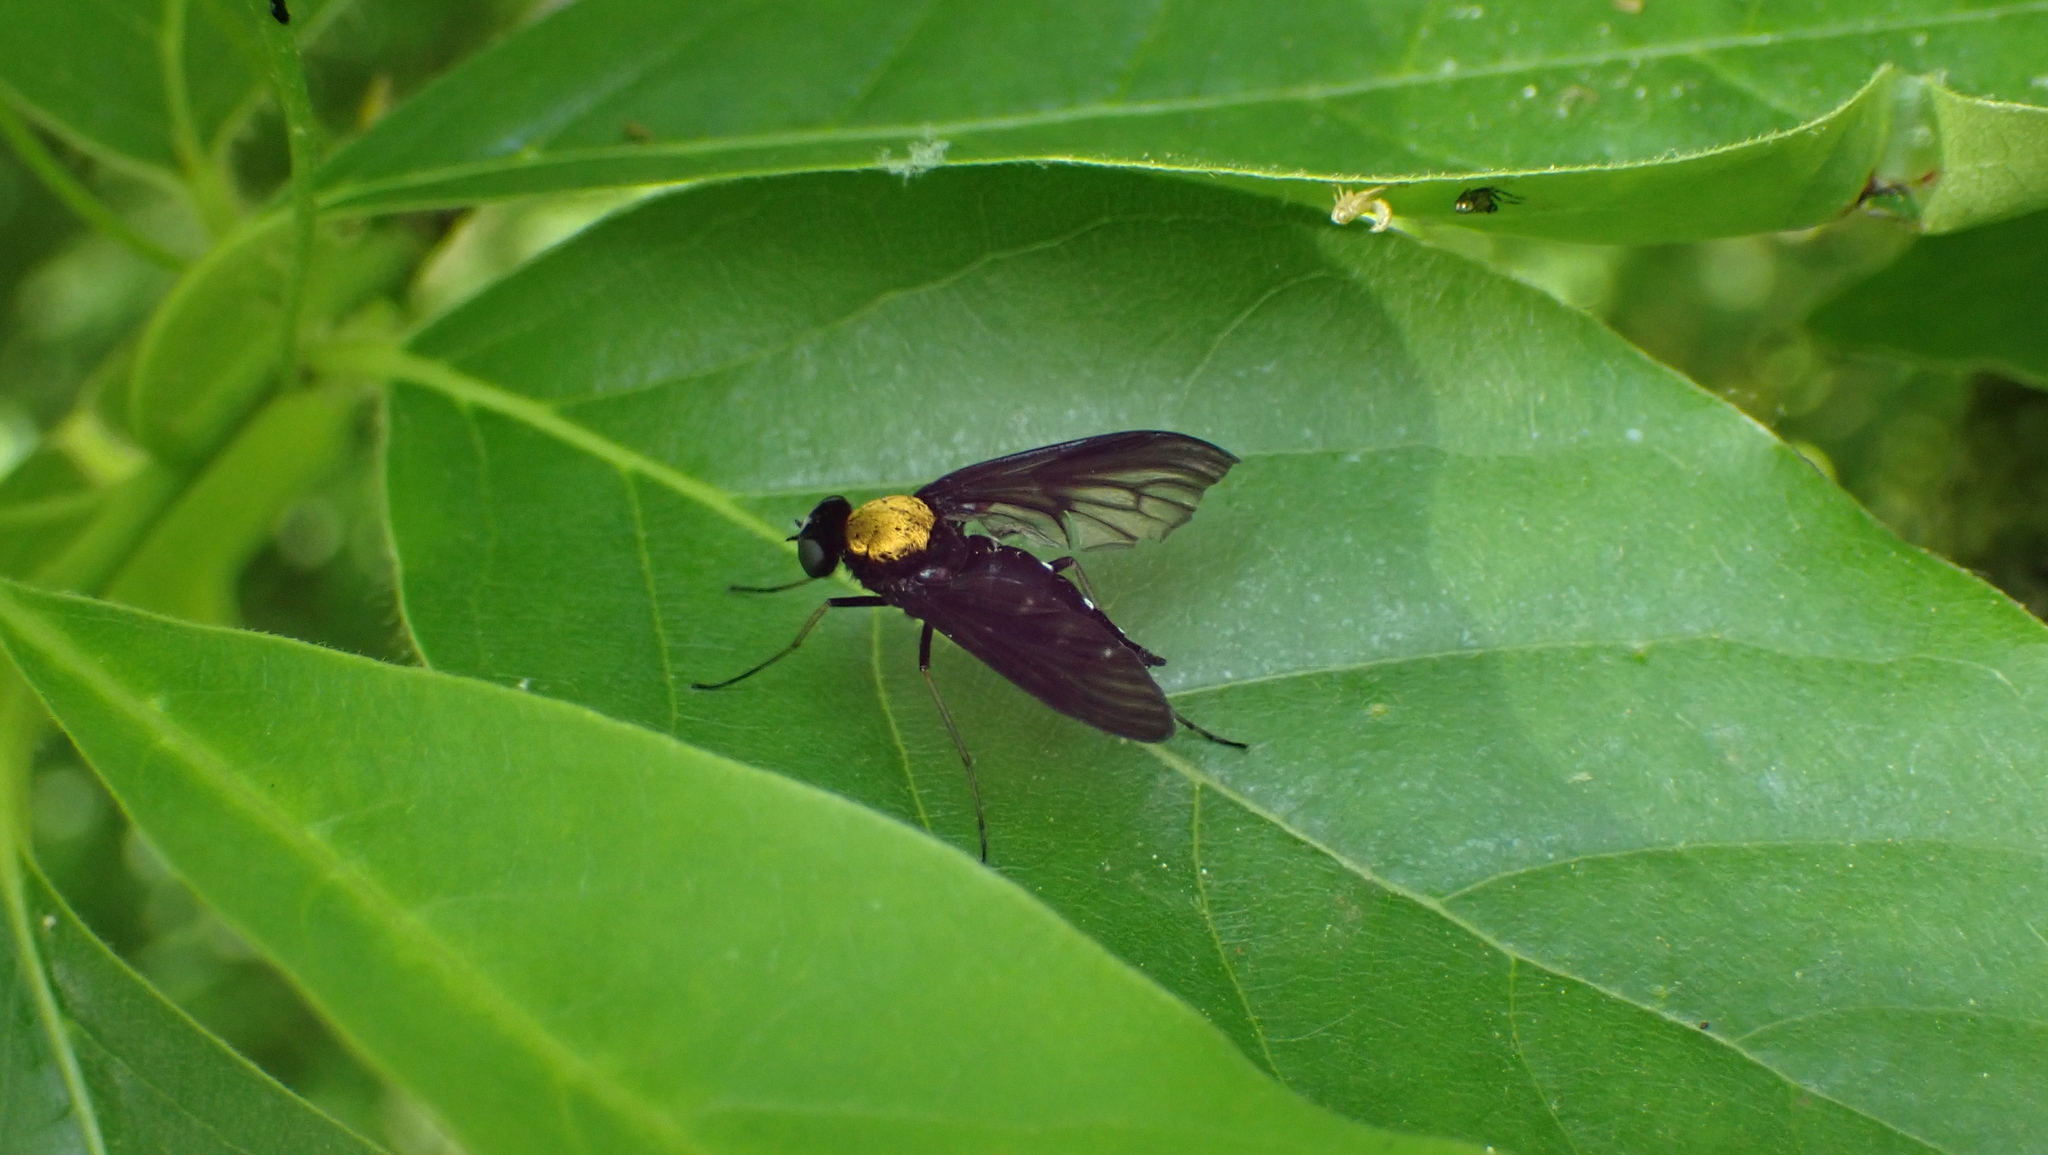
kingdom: Animalia
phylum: Arthropoda
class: Insecta
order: Diptera
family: Rhagionidae
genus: Chrysopilus
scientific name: Chrysopilus thoracicus
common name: Golden-backed snipe fly
